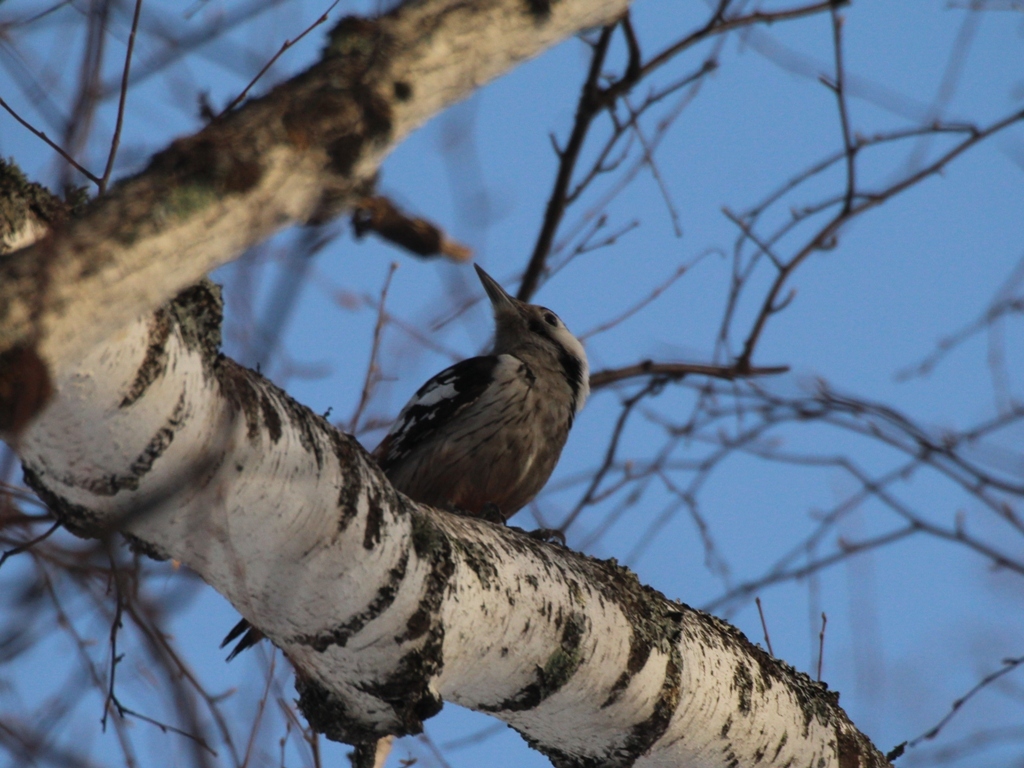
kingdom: Animalia
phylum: Chordata
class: Aves
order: Piciformes
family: Picidae
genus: Dendrocopos
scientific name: Dendrocopos leucotos
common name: White-backed woodpecker
